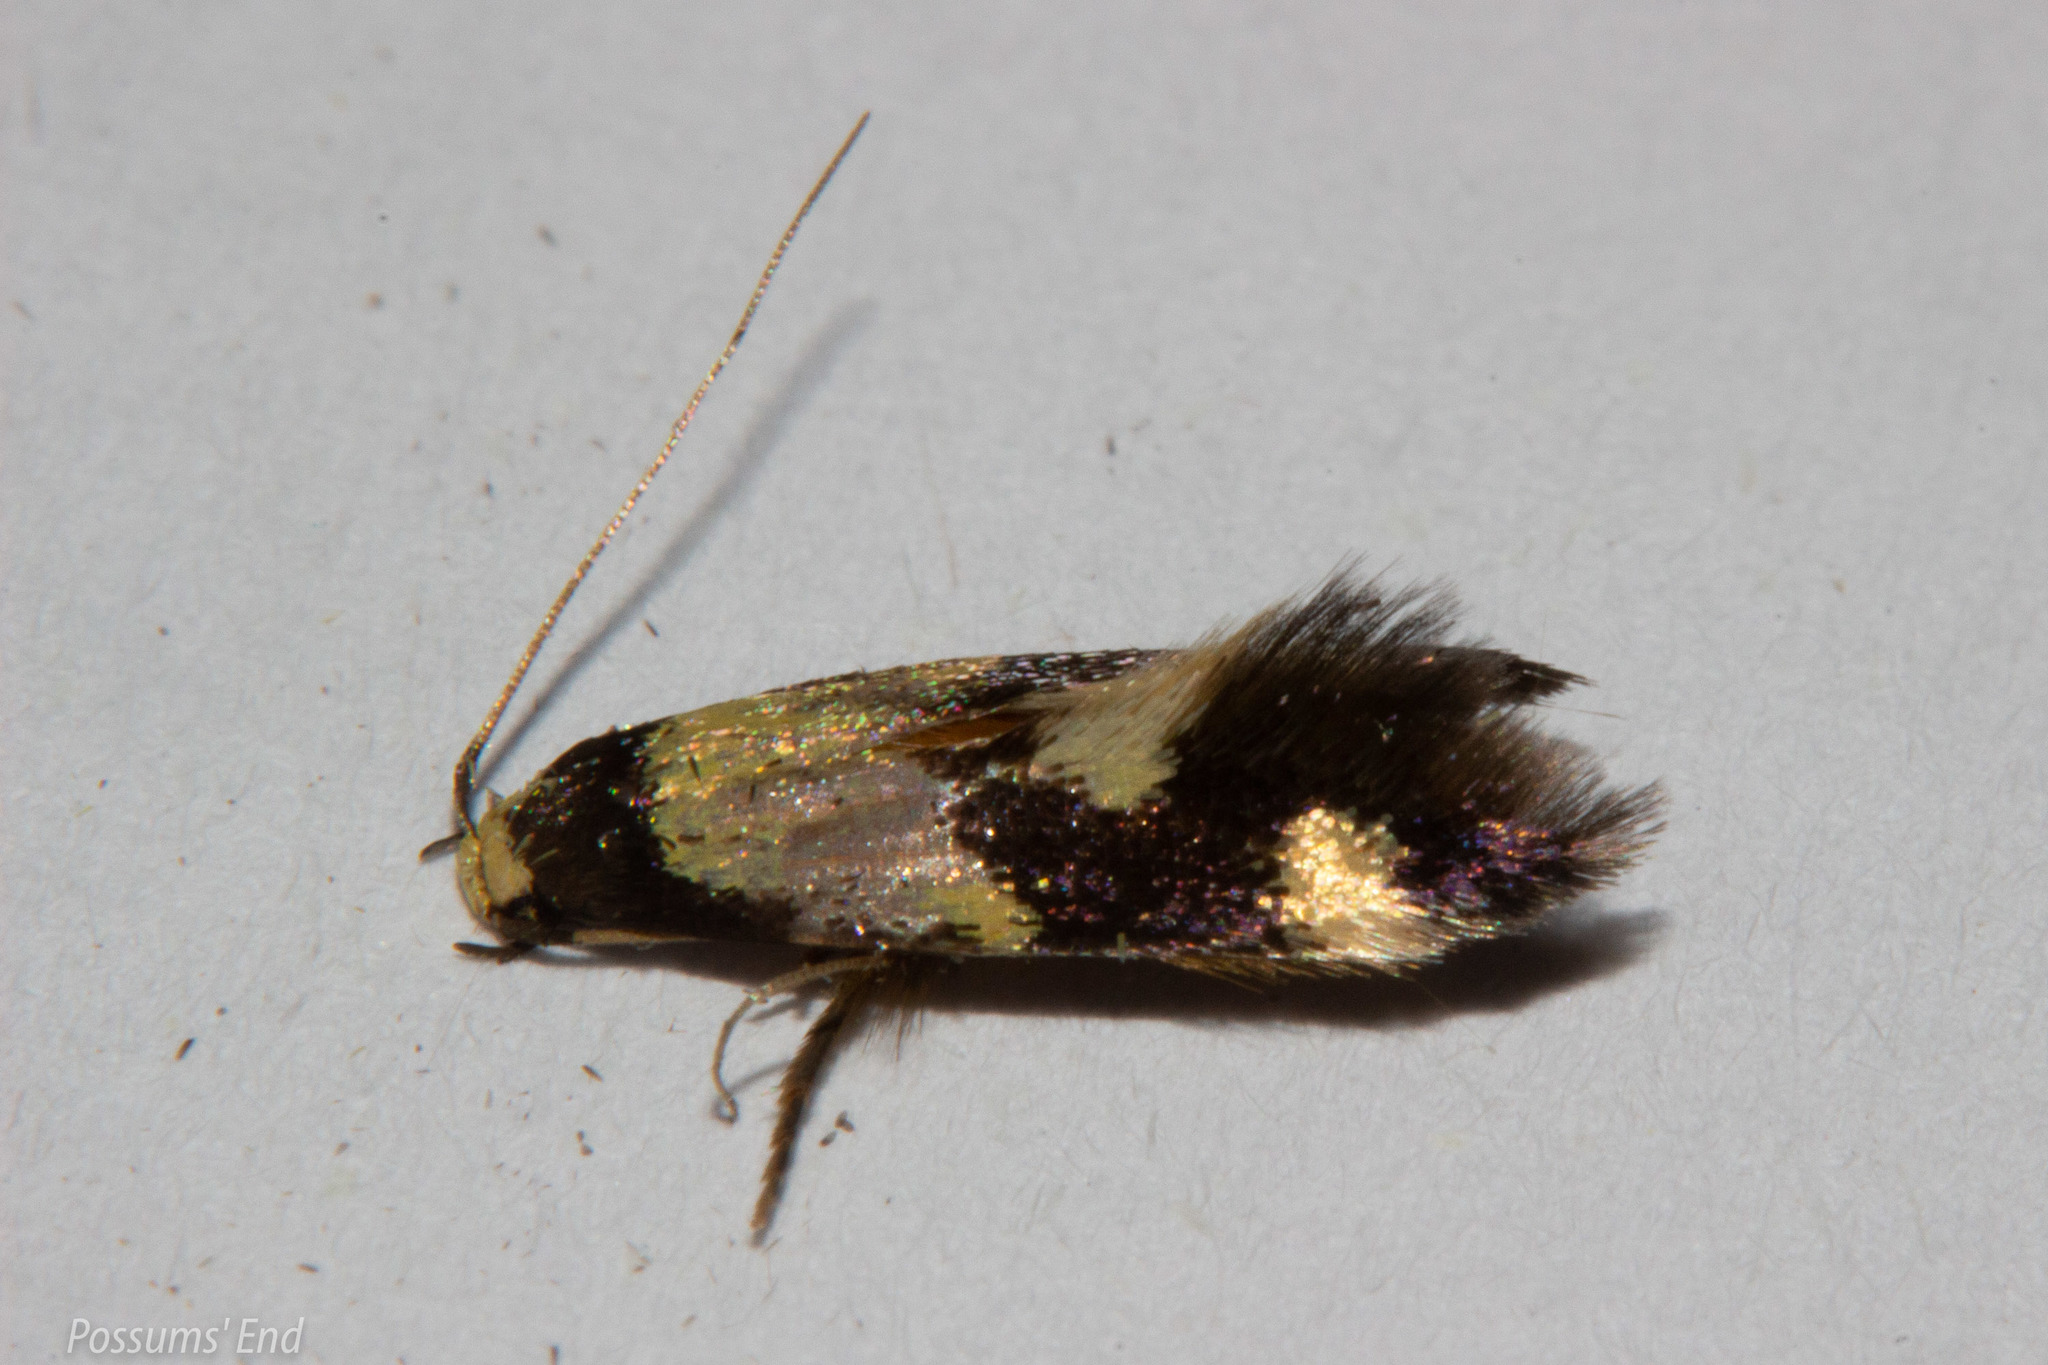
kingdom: Animalia
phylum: Arthropoda
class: Insecta
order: Lepidoptera
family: Tineidae
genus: Opogona
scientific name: Opogona comptella
